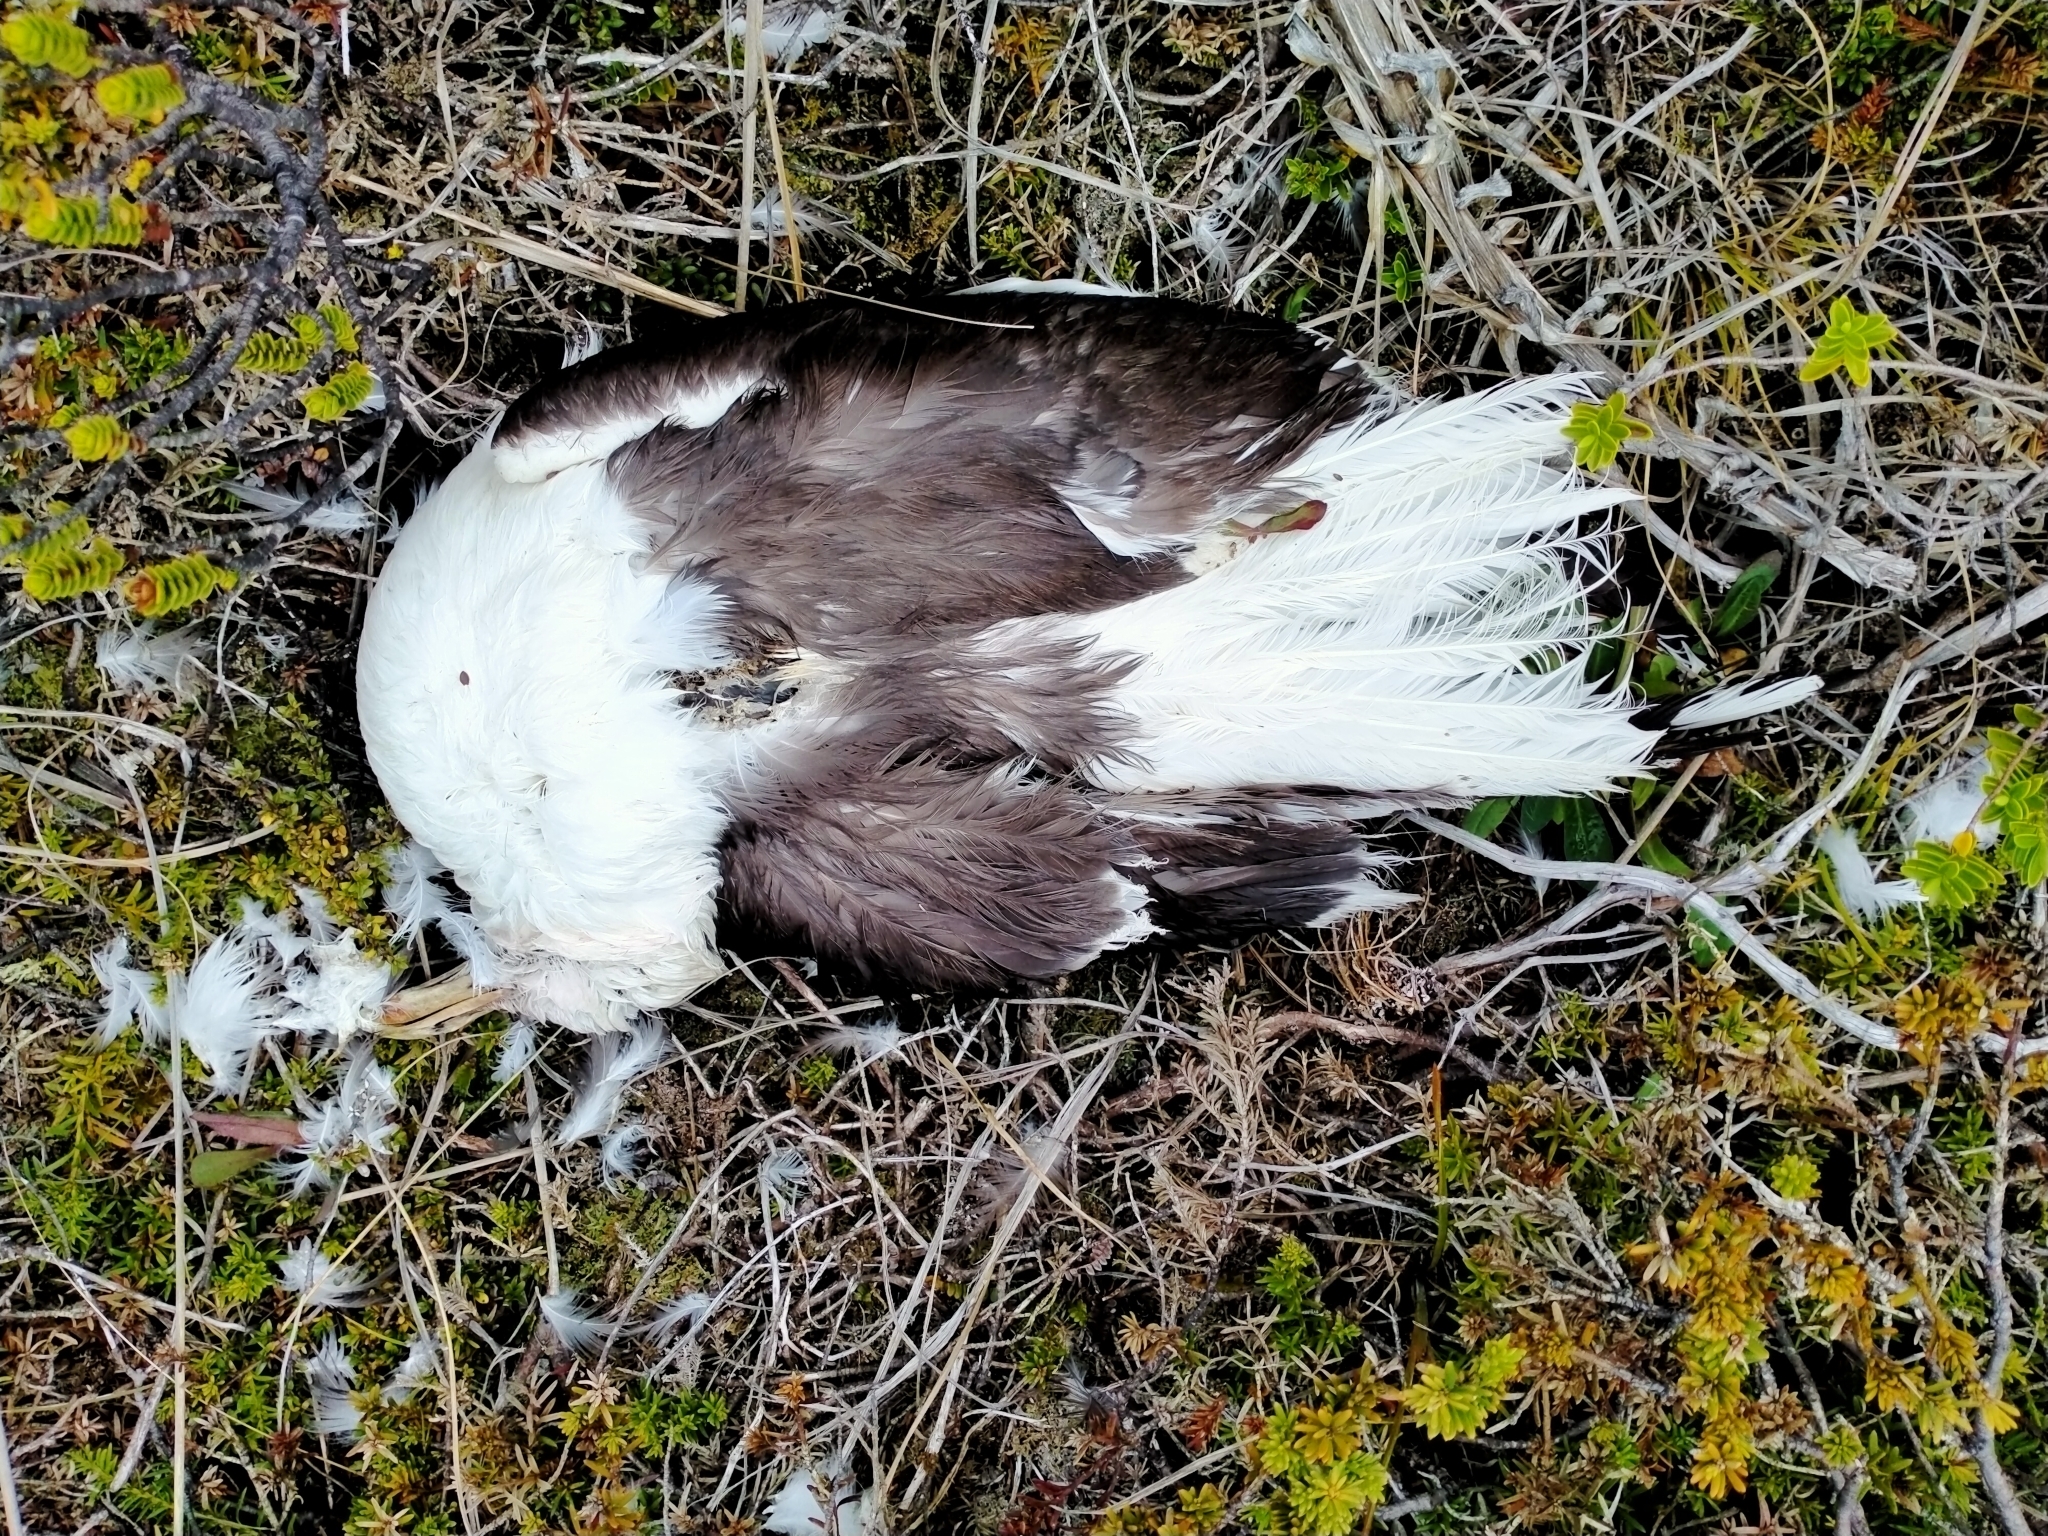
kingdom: Animalia
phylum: Chordata
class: Aves
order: Charadriiformes
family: Laridae
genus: Larus
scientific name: Larus dominicanus
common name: Kelp gull
